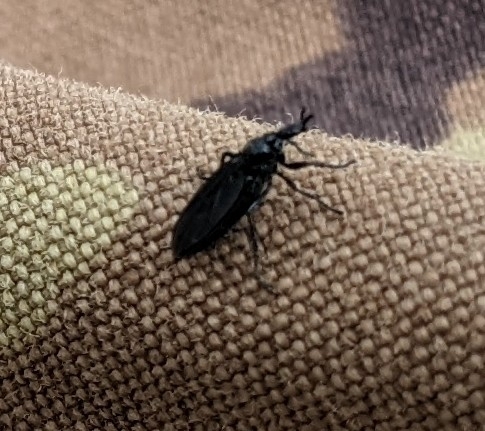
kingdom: Animalia
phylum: Arthropoda
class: Insecta
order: Diptera
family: Bibionidae
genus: Dilophus
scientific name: Dilophus orbatus
